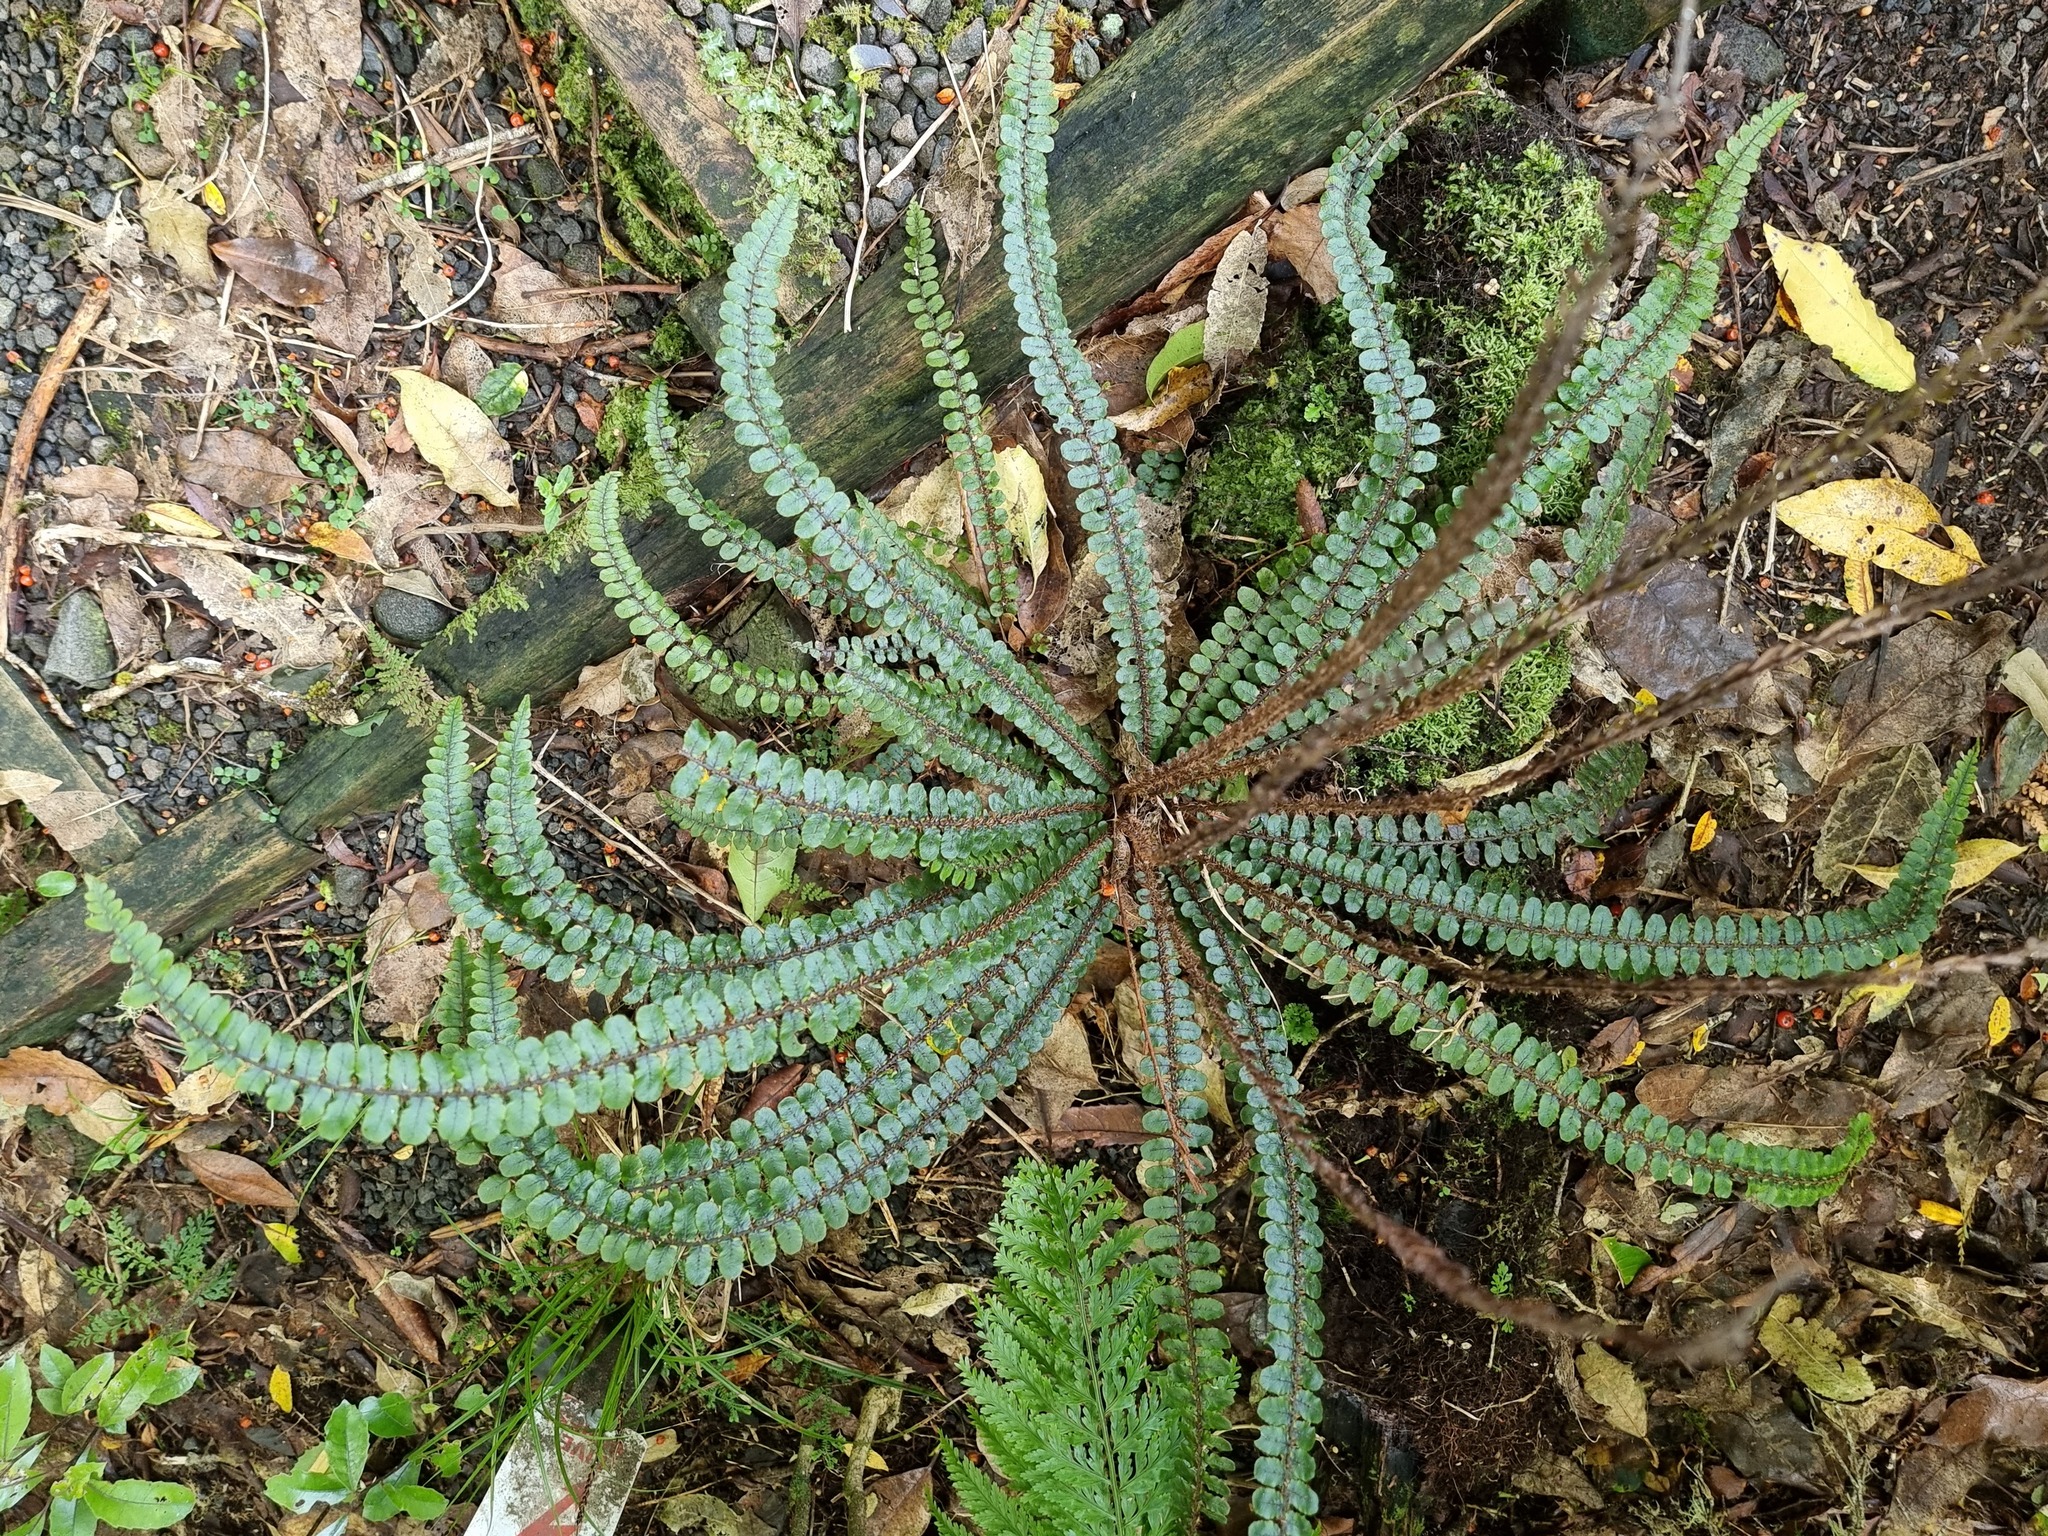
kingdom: Plantae
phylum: Tracheophyta
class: Polypodiopsida
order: Polypodiales
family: Blechnaceae
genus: Cranfillia
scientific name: Cranfillia fluviatilis
